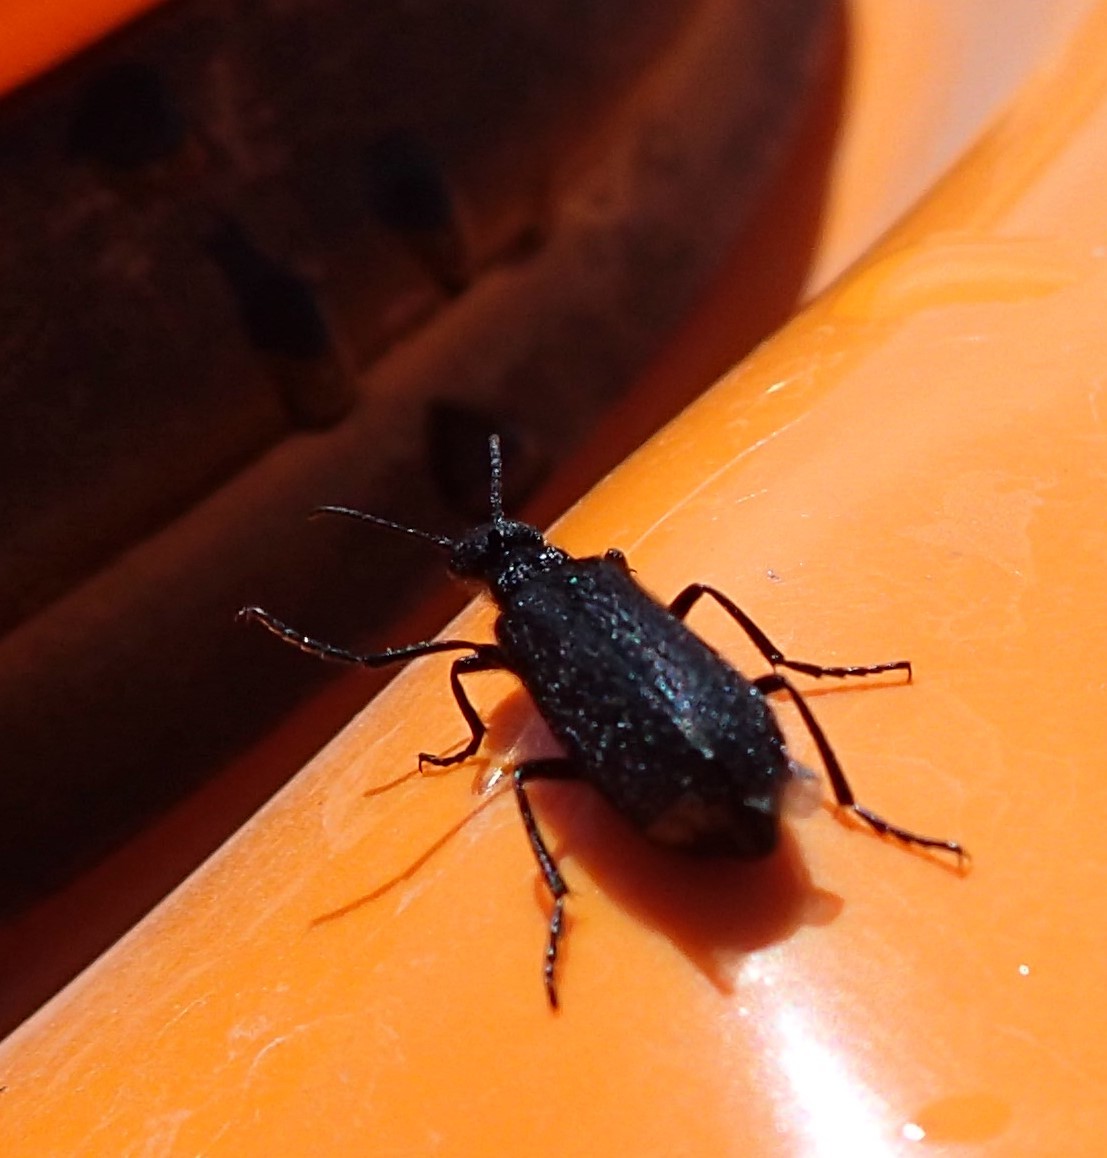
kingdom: Animalia
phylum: Arthropoda
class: Insecta
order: Coleoptera
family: Meloidae
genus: Epicauta
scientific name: Epicauta puncticollis
